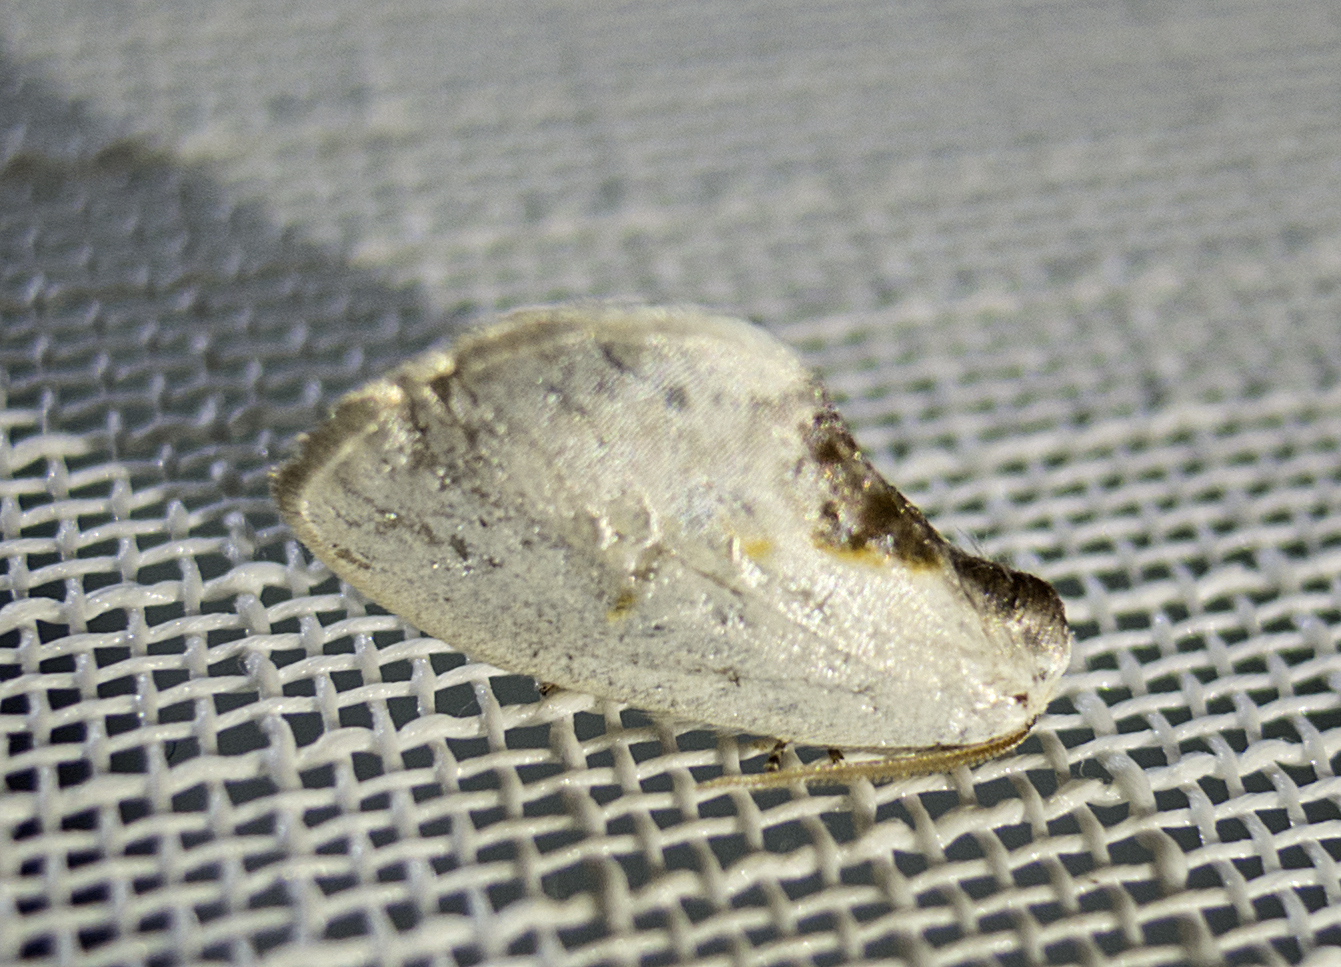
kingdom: Animalia
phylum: Arthropoda
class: Insecta
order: Lepidoptera
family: Drepanidae
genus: Cilix
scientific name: Cilix
